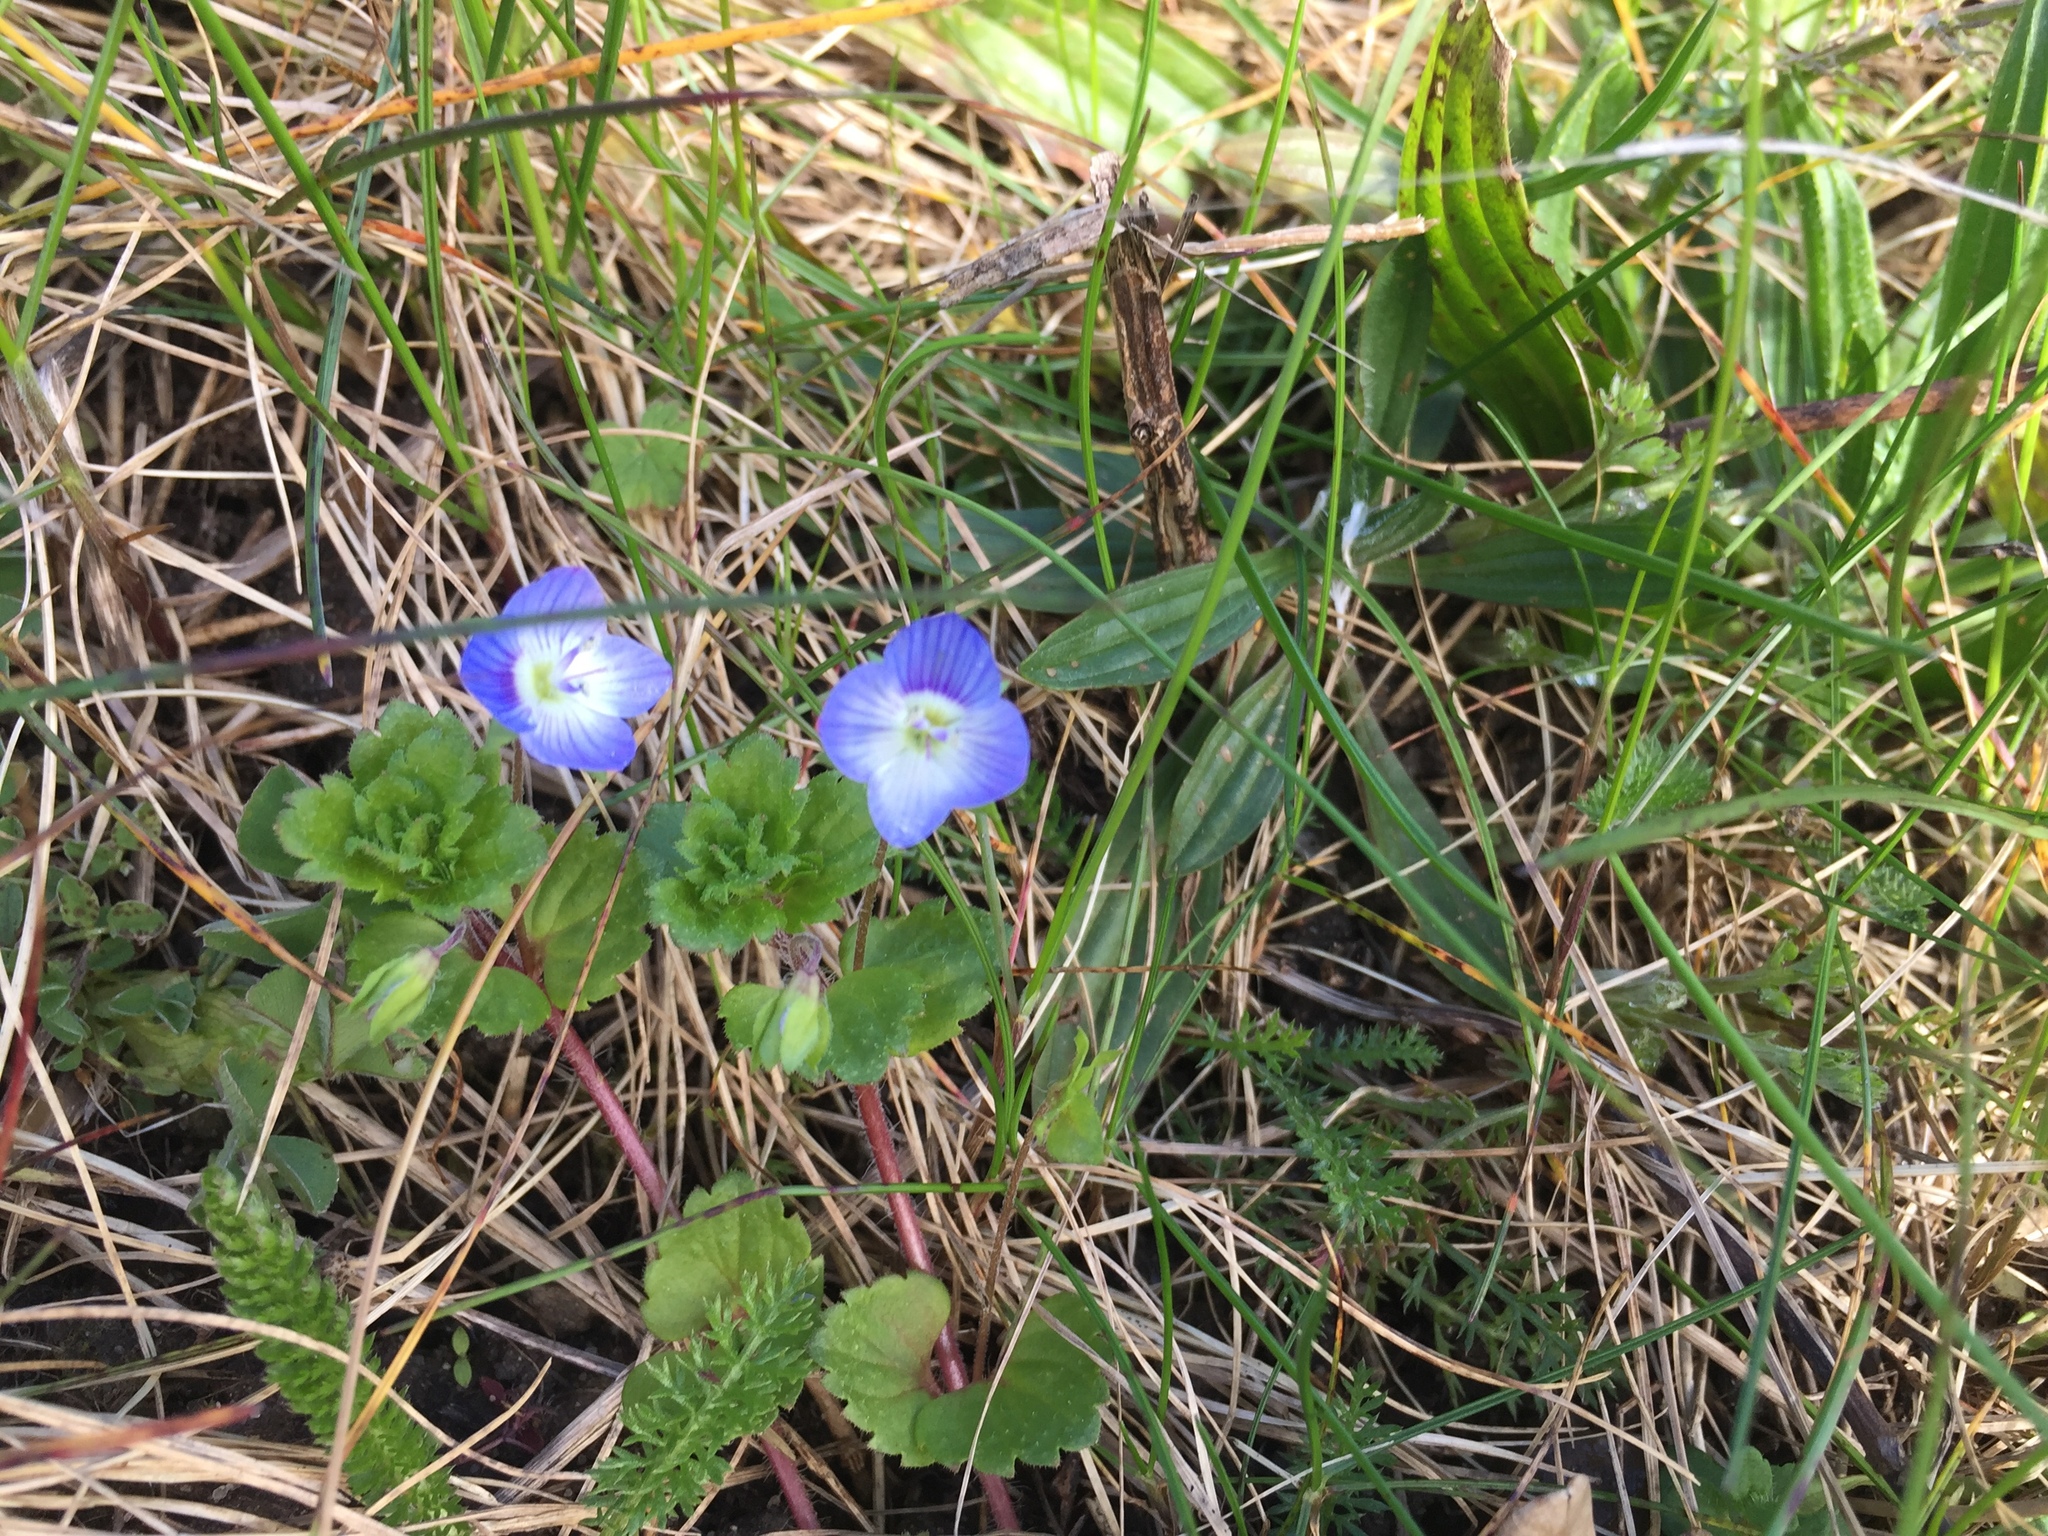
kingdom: Plantae
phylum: Tracheophyta
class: Magnoliopsida
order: Lamiales
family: Plantaginaceae
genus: Veronica
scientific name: Veronica persica
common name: Common field-speedwell
